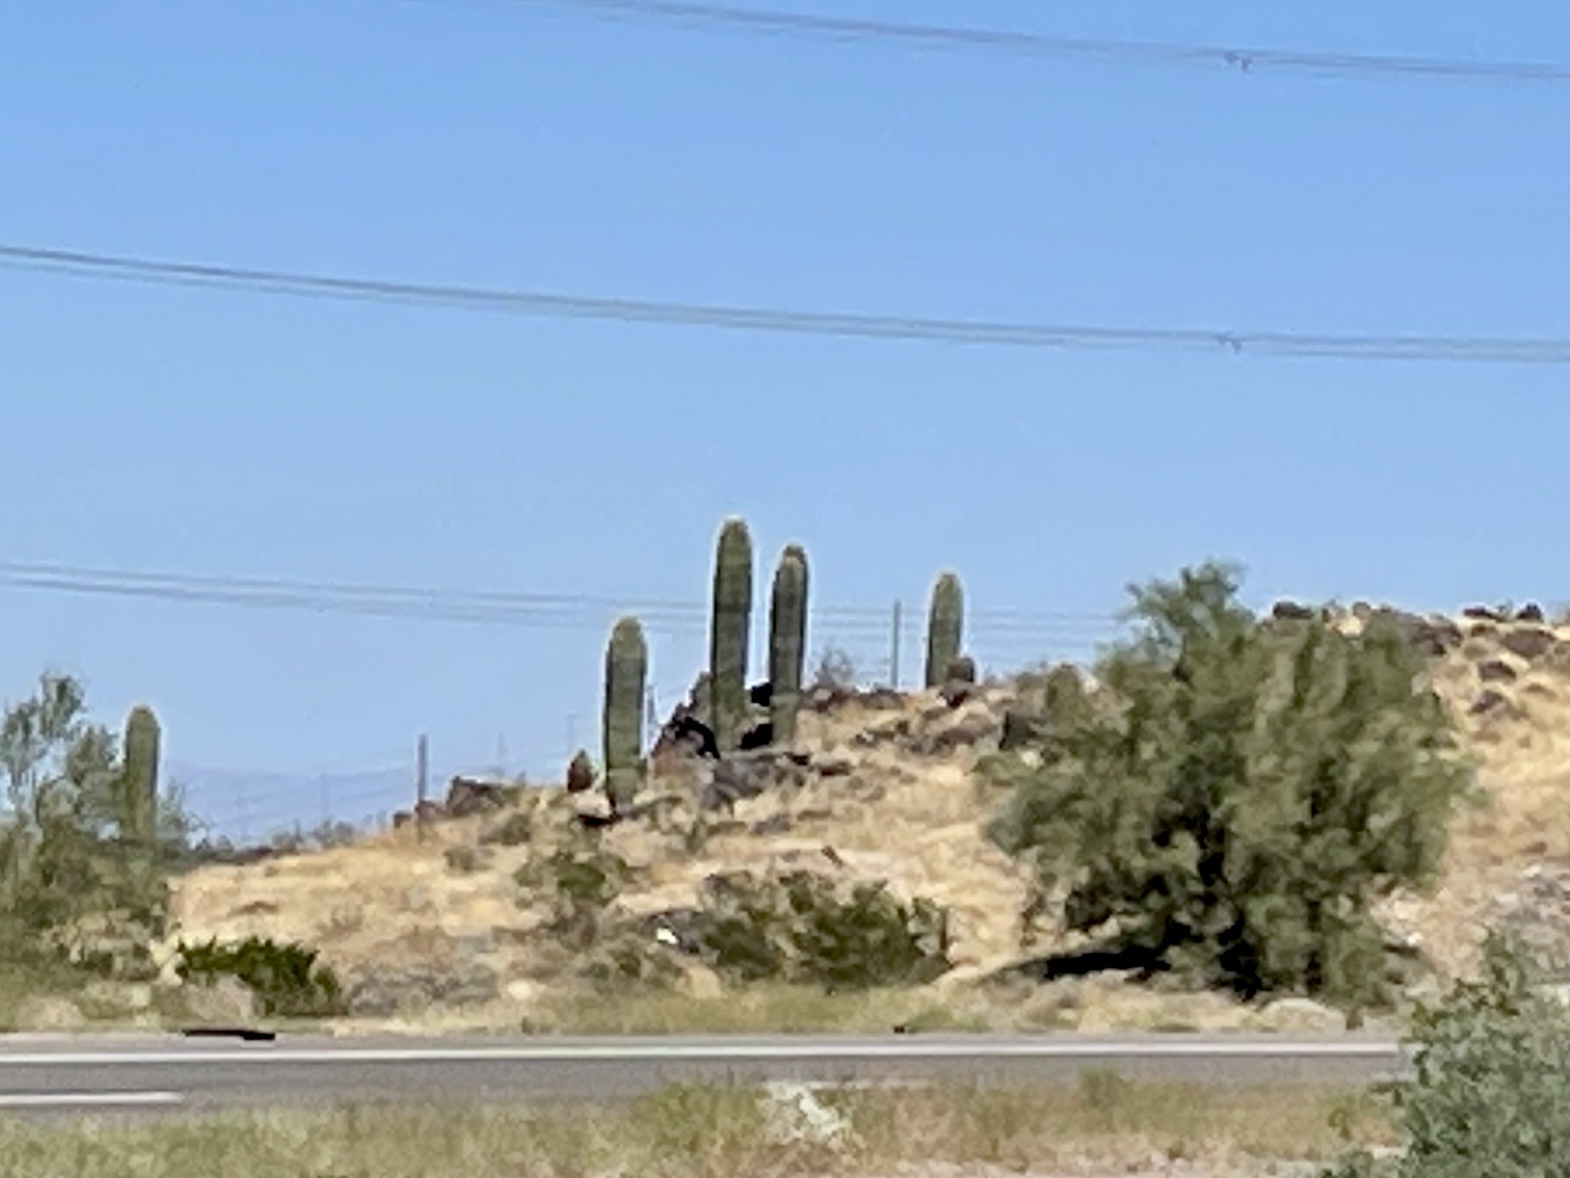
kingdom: Plantae
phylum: Tracheophyta
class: Magnoliopsida
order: Caryophyllales
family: Cactaceae
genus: Carnegiea
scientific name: Carnegiea gigantea
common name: Saguaro
